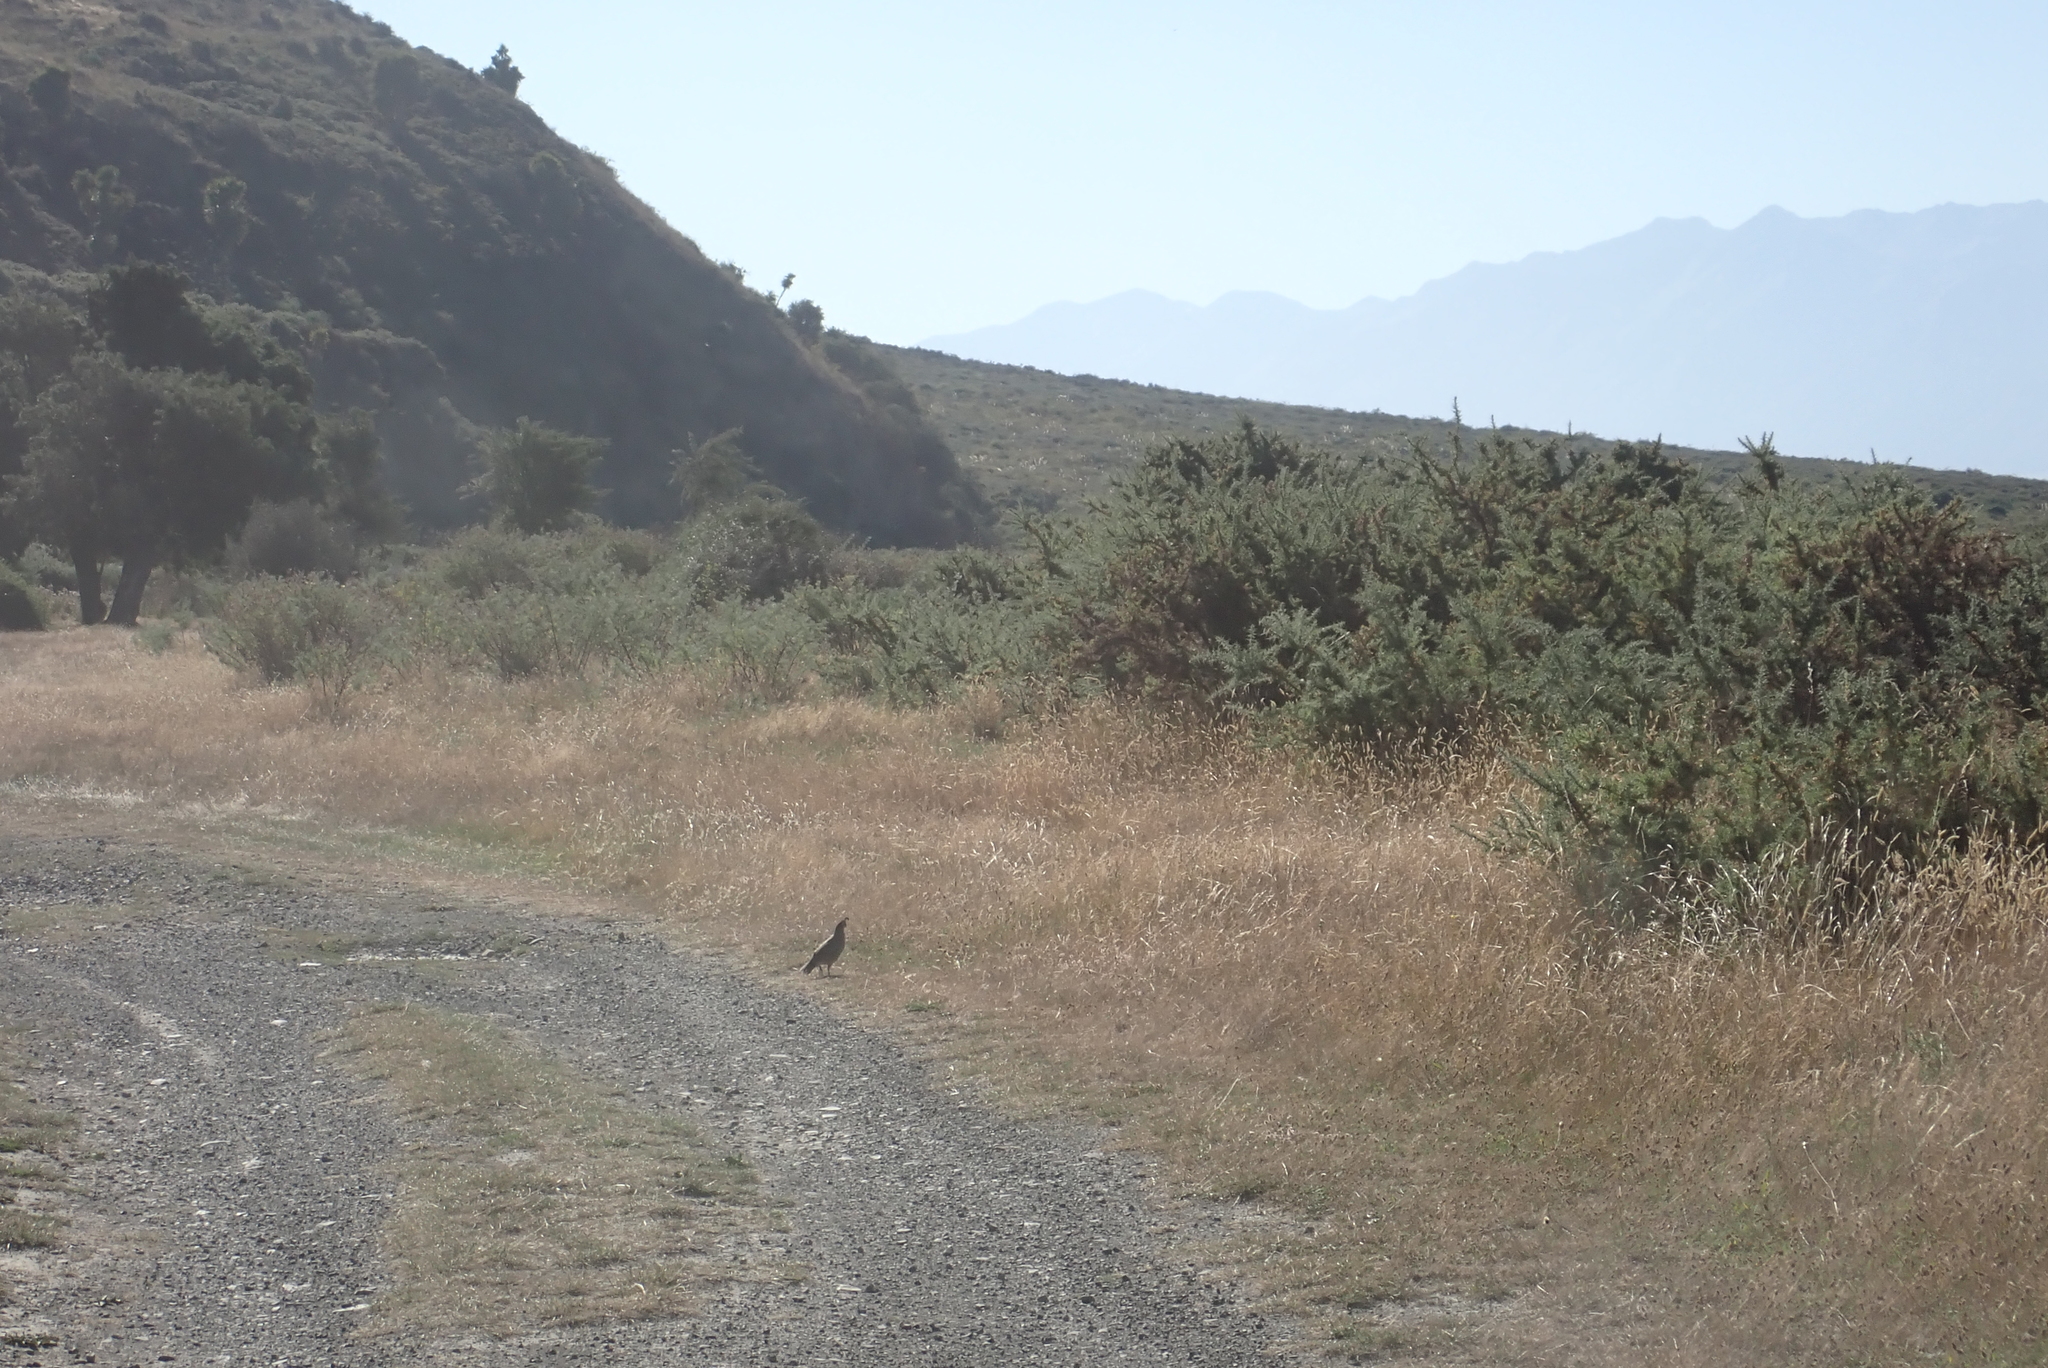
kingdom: Animalia
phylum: Chordata
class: Aves
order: Galliformes
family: Odontophoridae
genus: Callipepla
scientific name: Callipepla californica
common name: California quail
